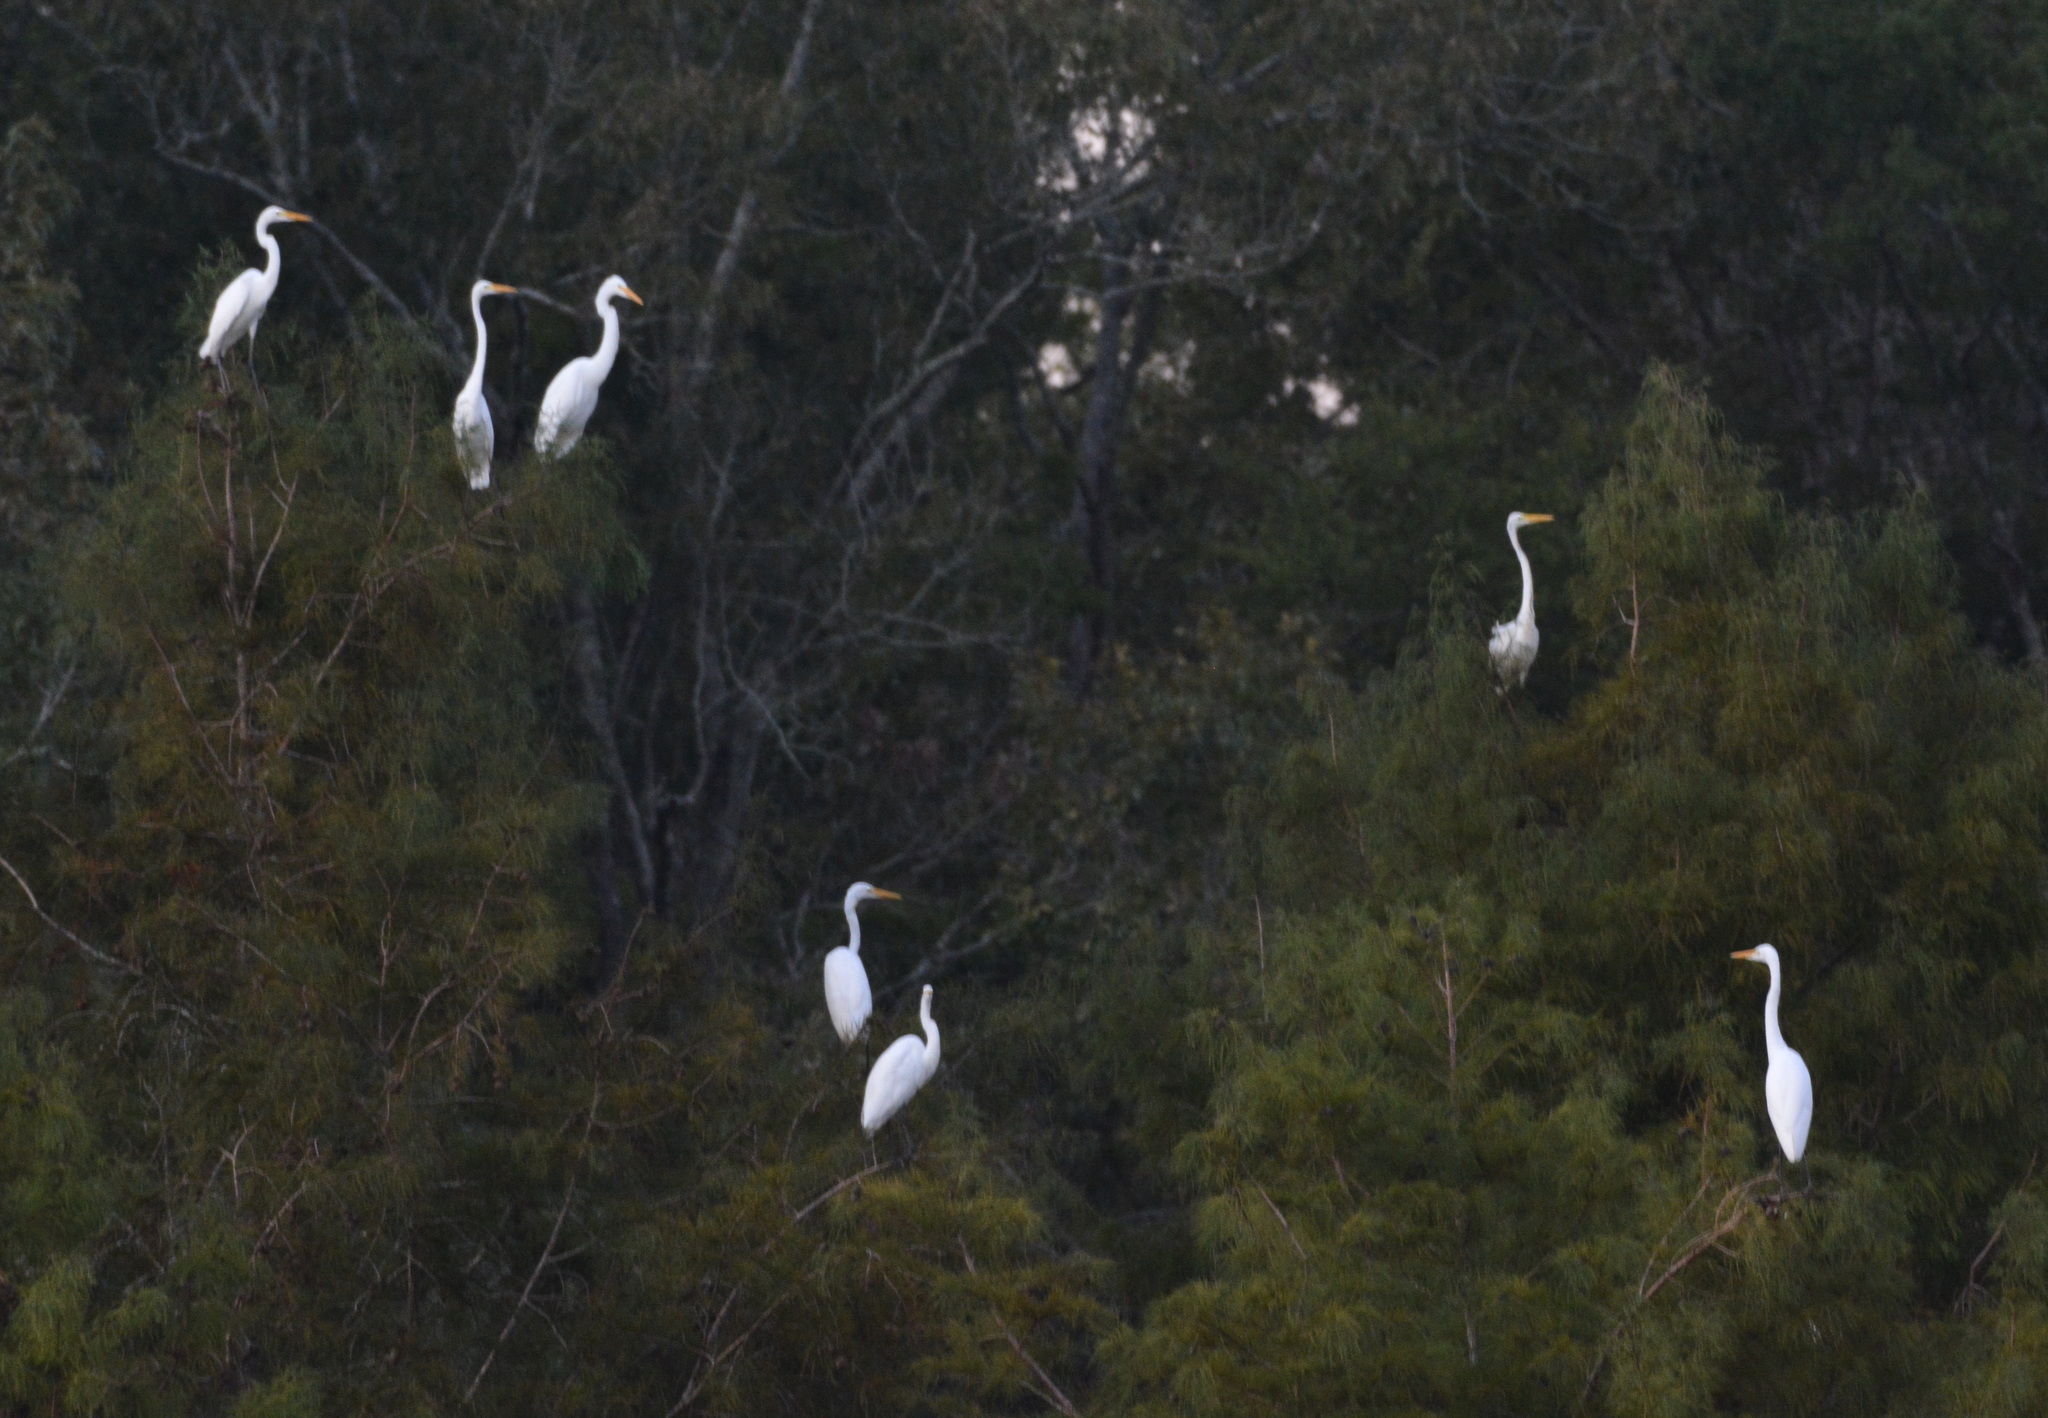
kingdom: Animalia
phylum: Chordata
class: Aves
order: Pelecaniformes
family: Ardeidae
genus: Ardea
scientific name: Ardea alba
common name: Great egret
